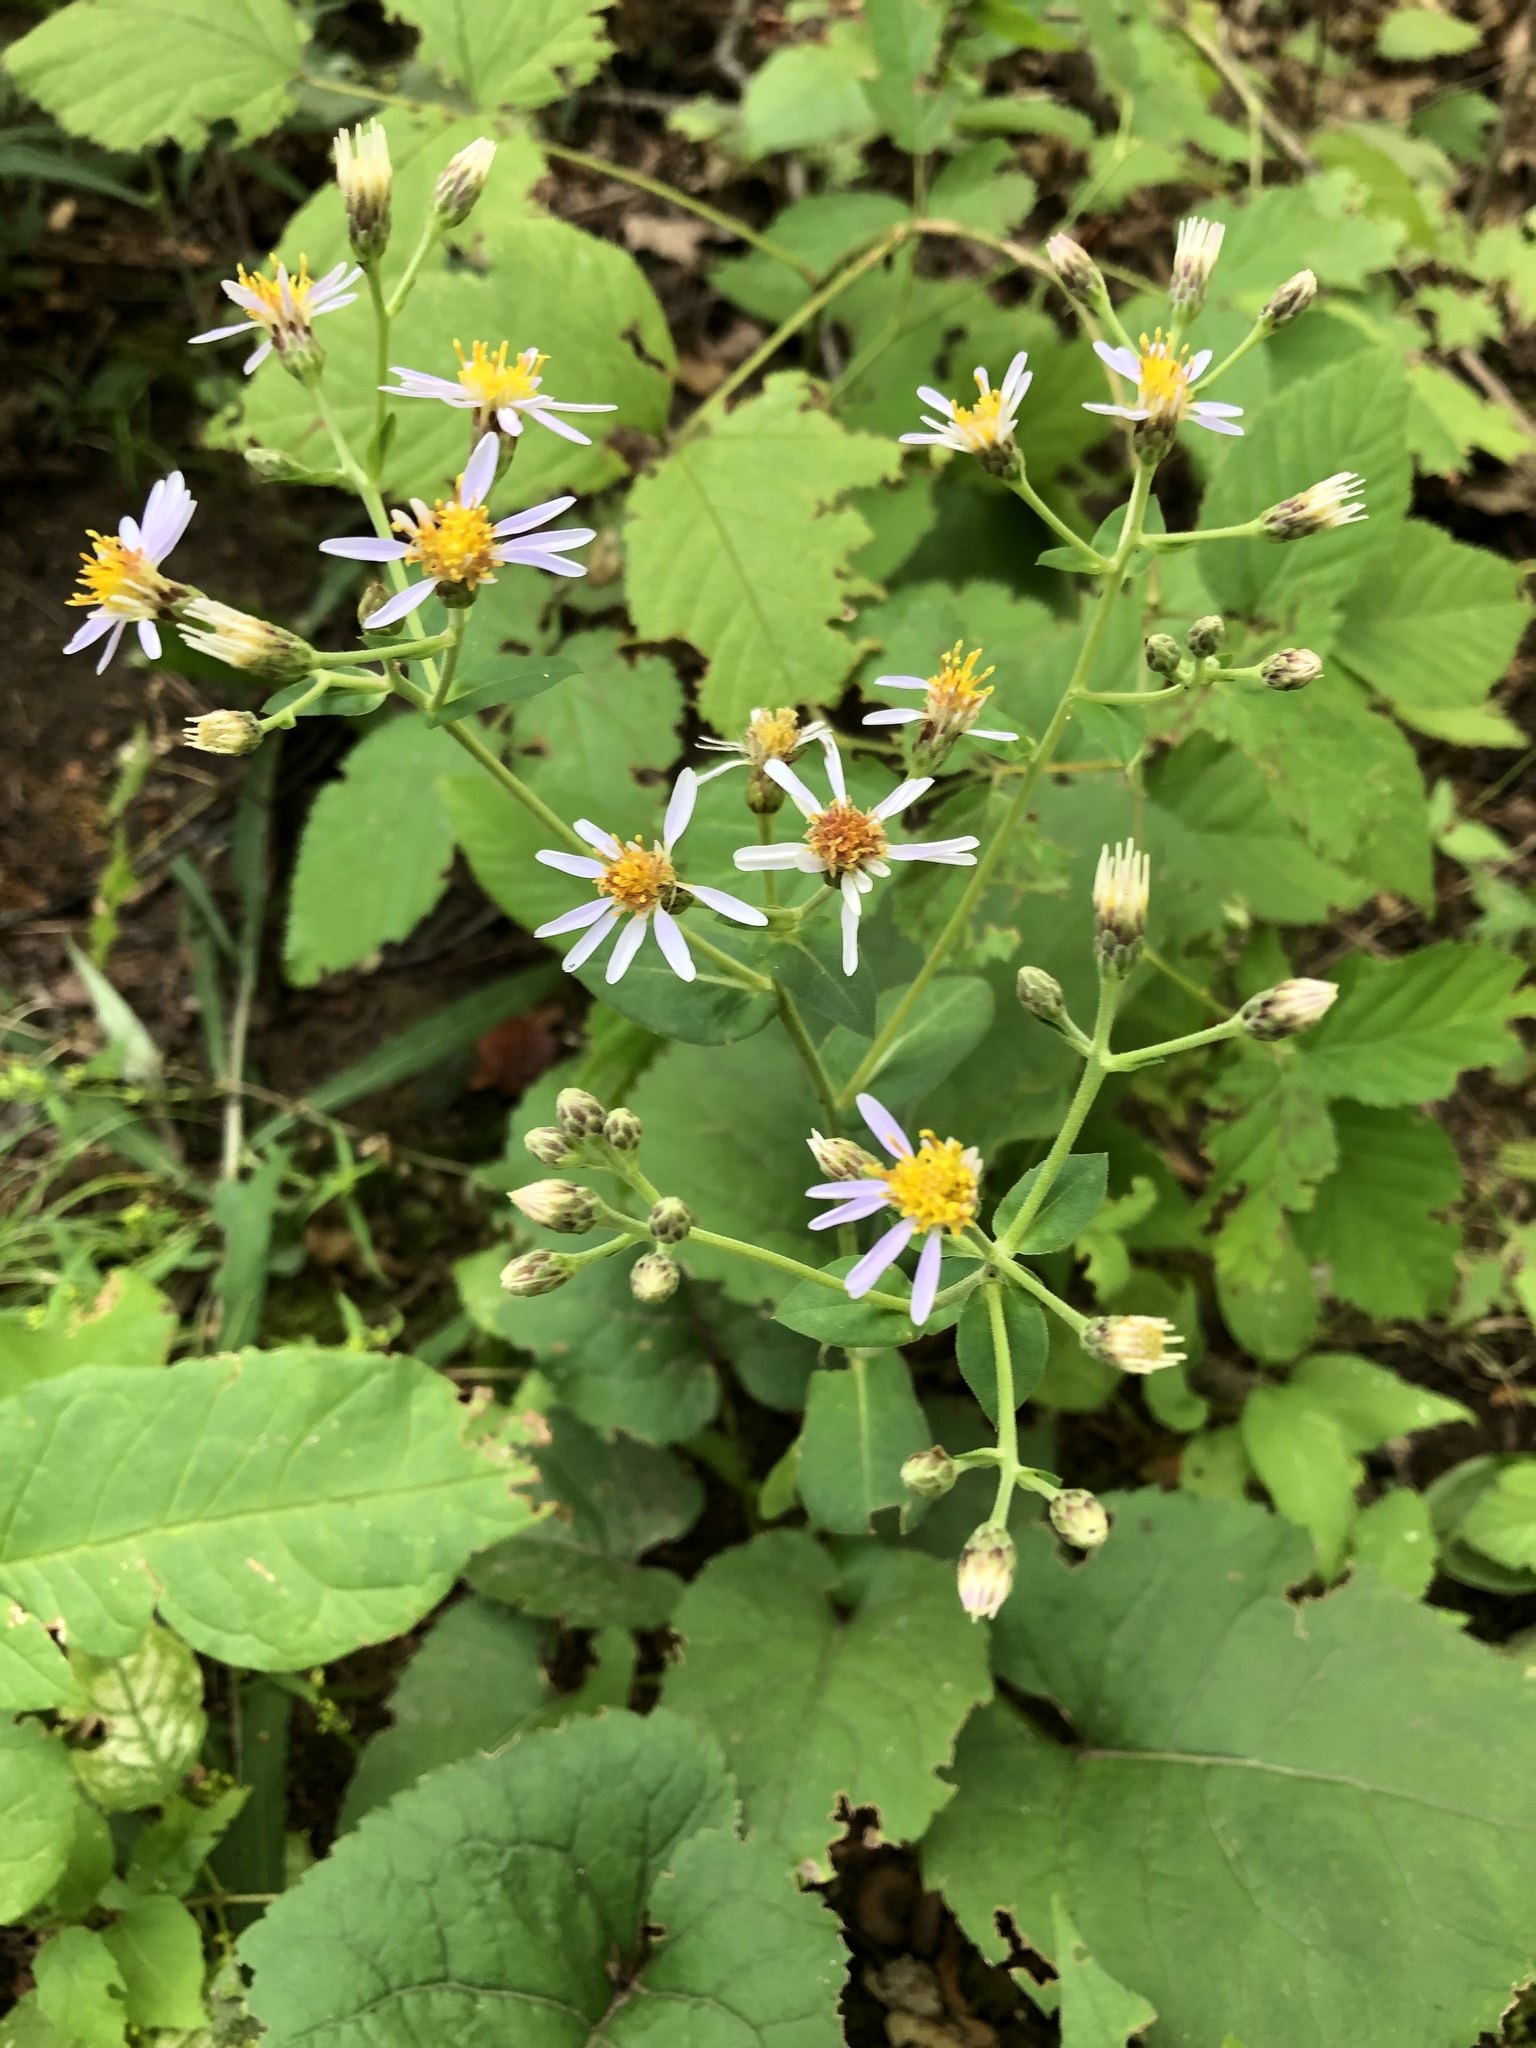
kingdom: Plantae
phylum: Tracheophyta
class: Magnoliopsida
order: Asterales
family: Asteraceae
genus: Eurybia
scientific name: Eurybia macrophylla
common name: Big-leaved aster
